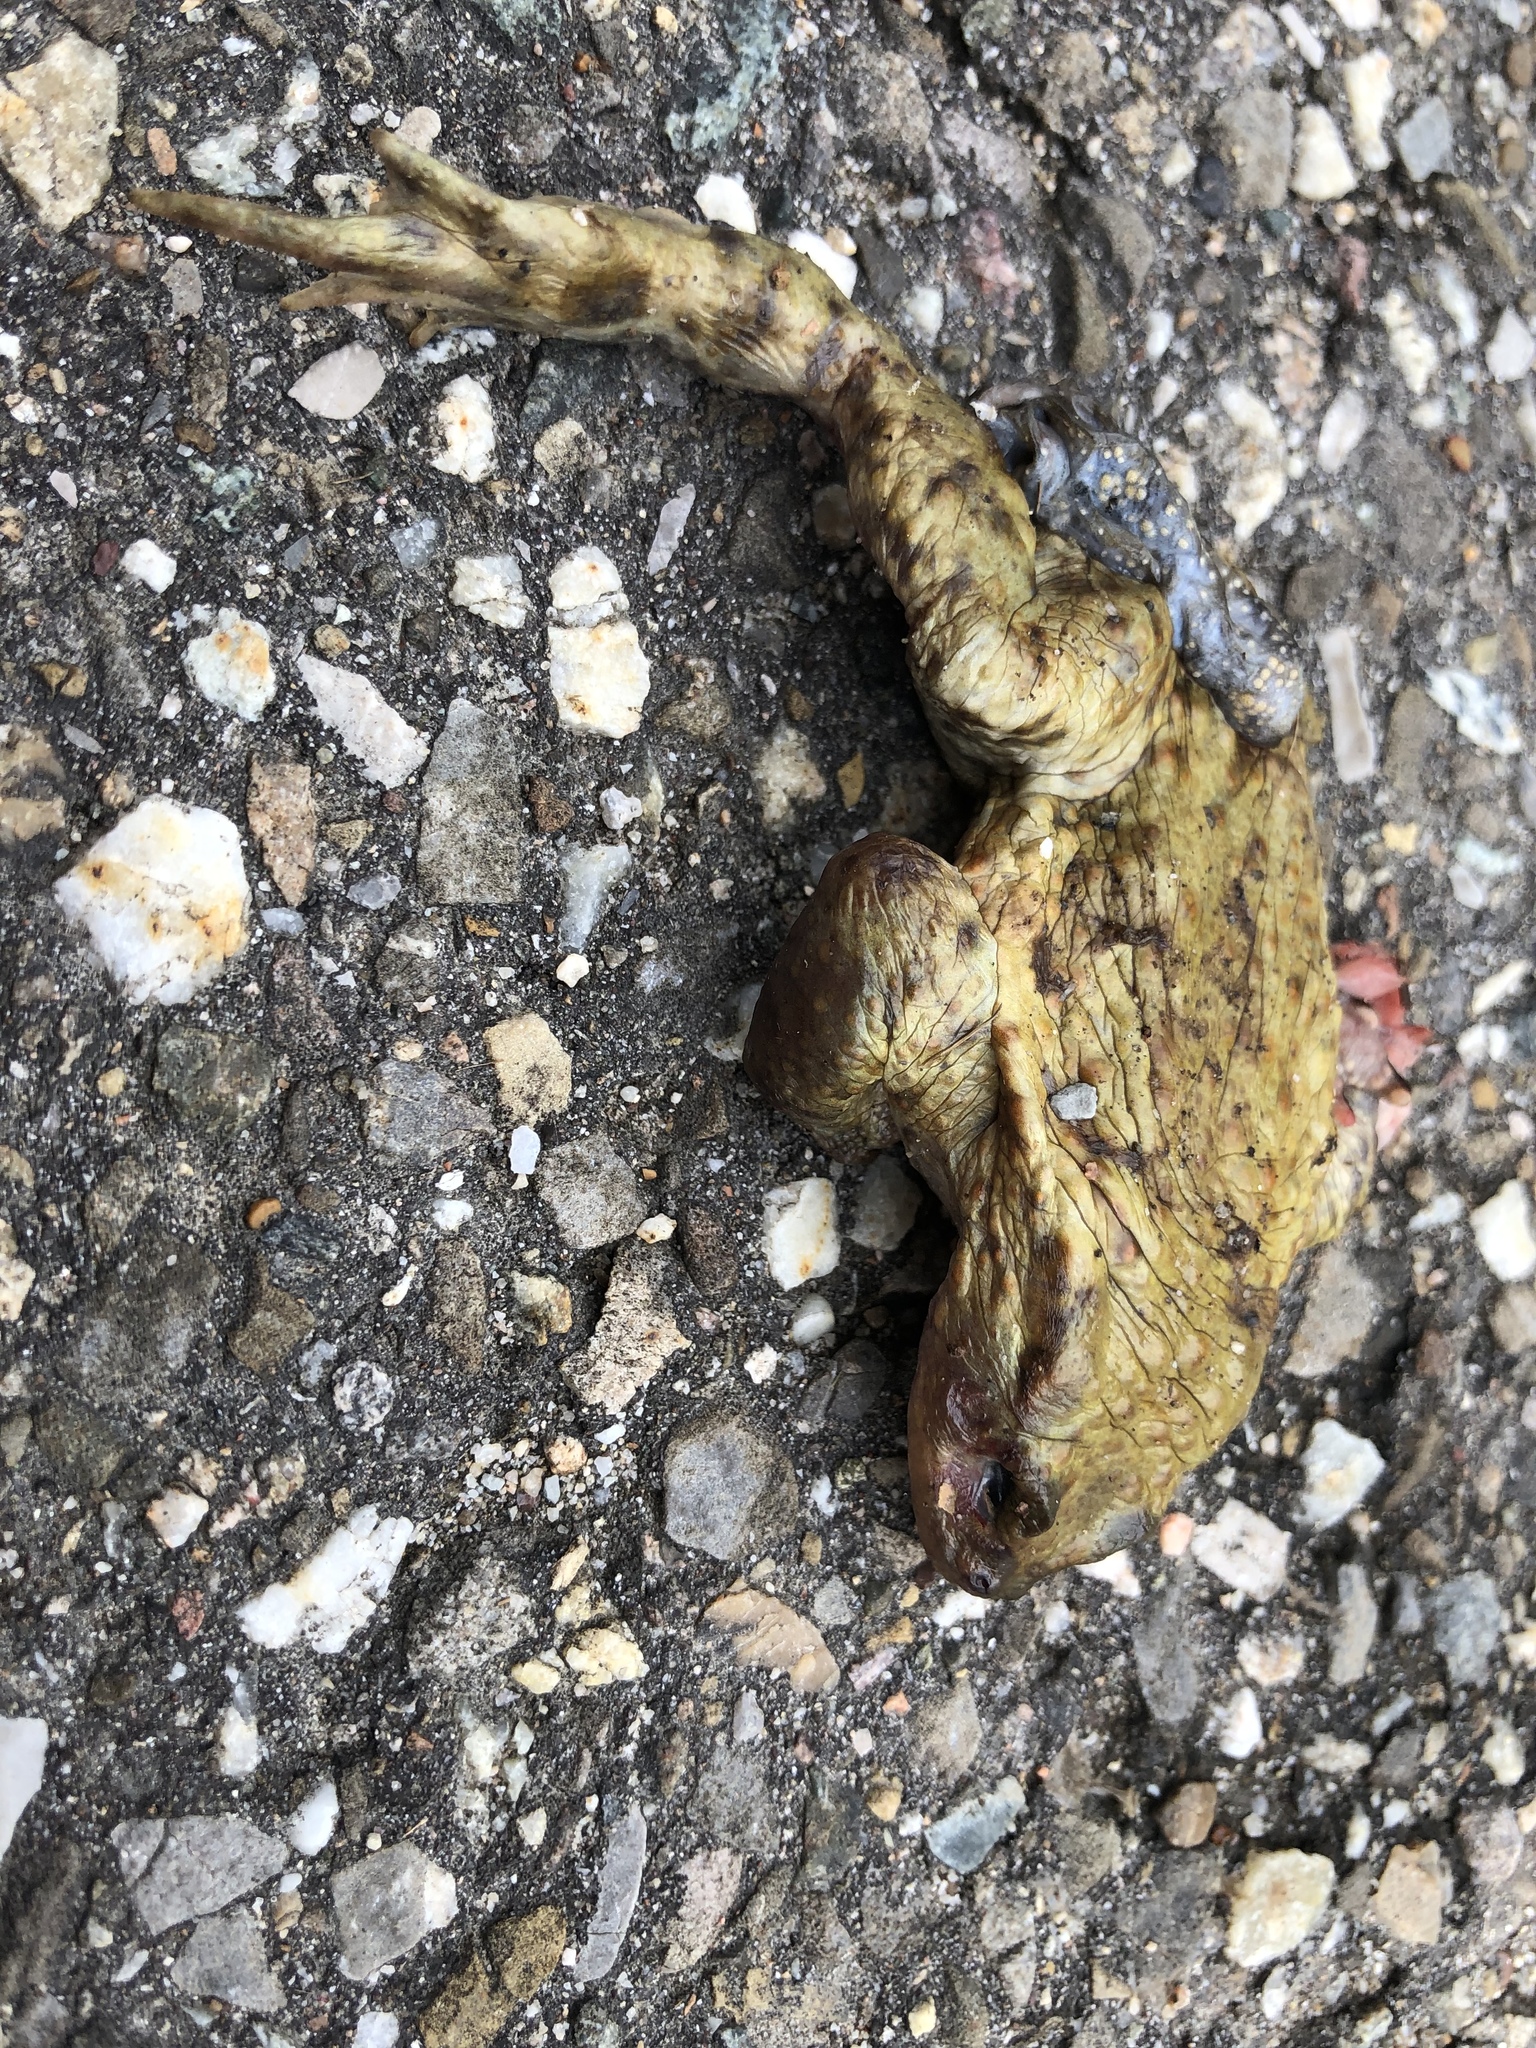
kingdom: Animalia
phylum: Chordata
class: Amphibia
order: Anura
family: Bufonidae
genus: Bufo
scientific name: Bufo bufo
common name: Common toad
